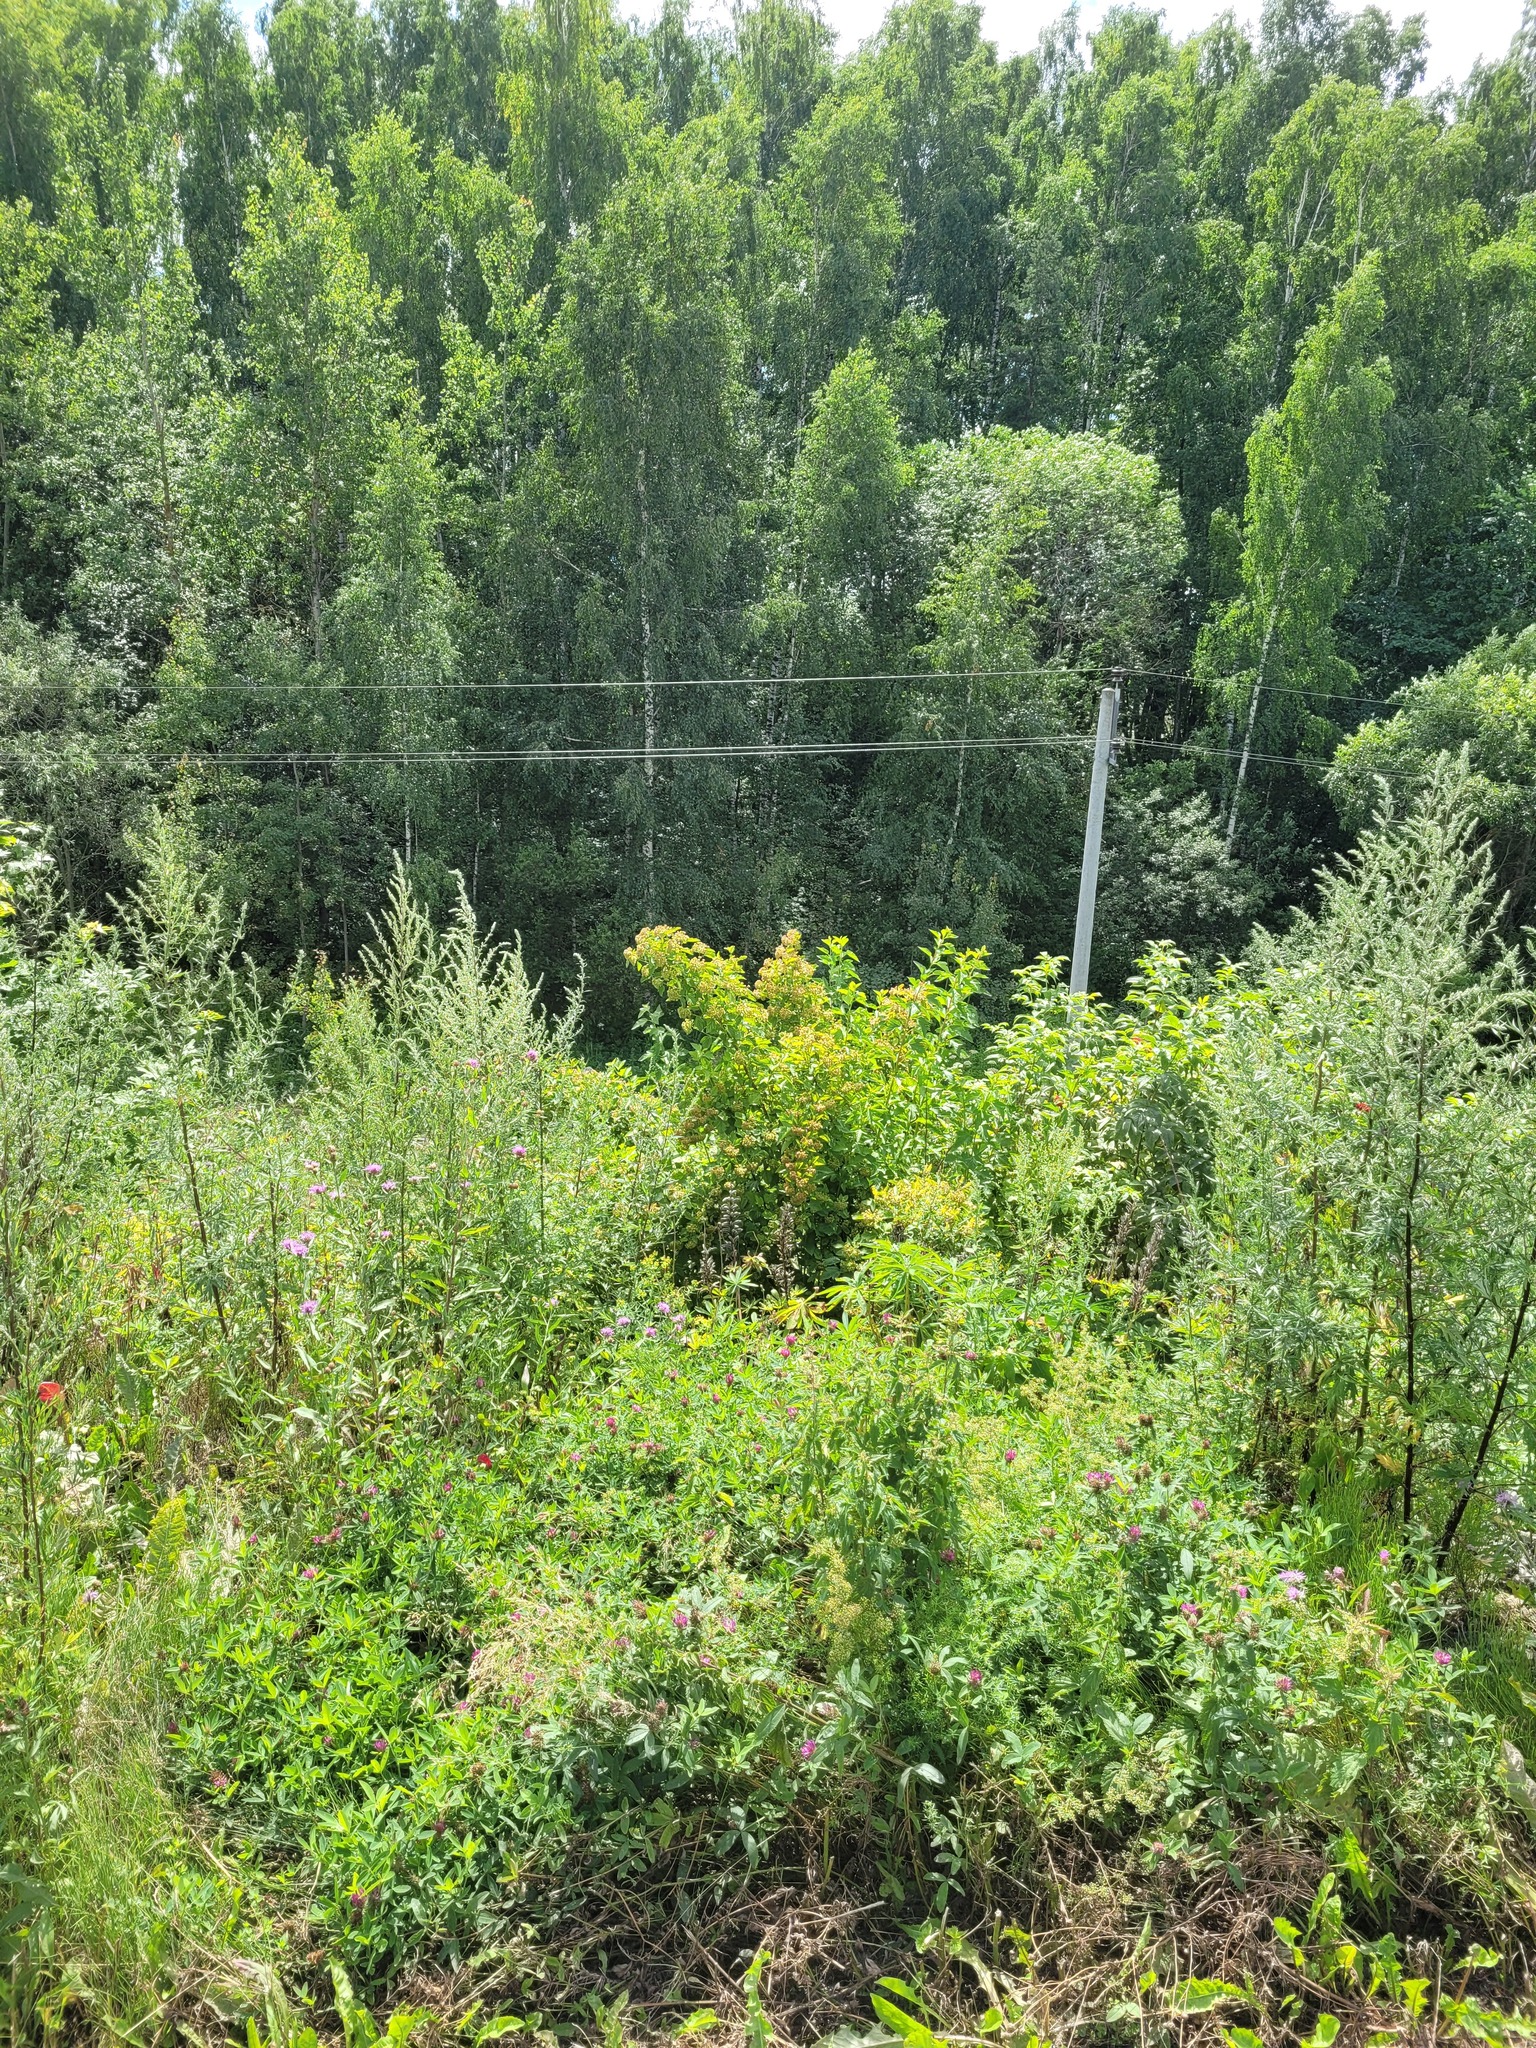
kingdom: Plantae
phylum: Tracheophyta
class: Magnoliopsida
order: Rosales
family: Rosaceae
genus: Physocarpus
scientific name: Physocarpus opulifolius
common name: Ninebark
